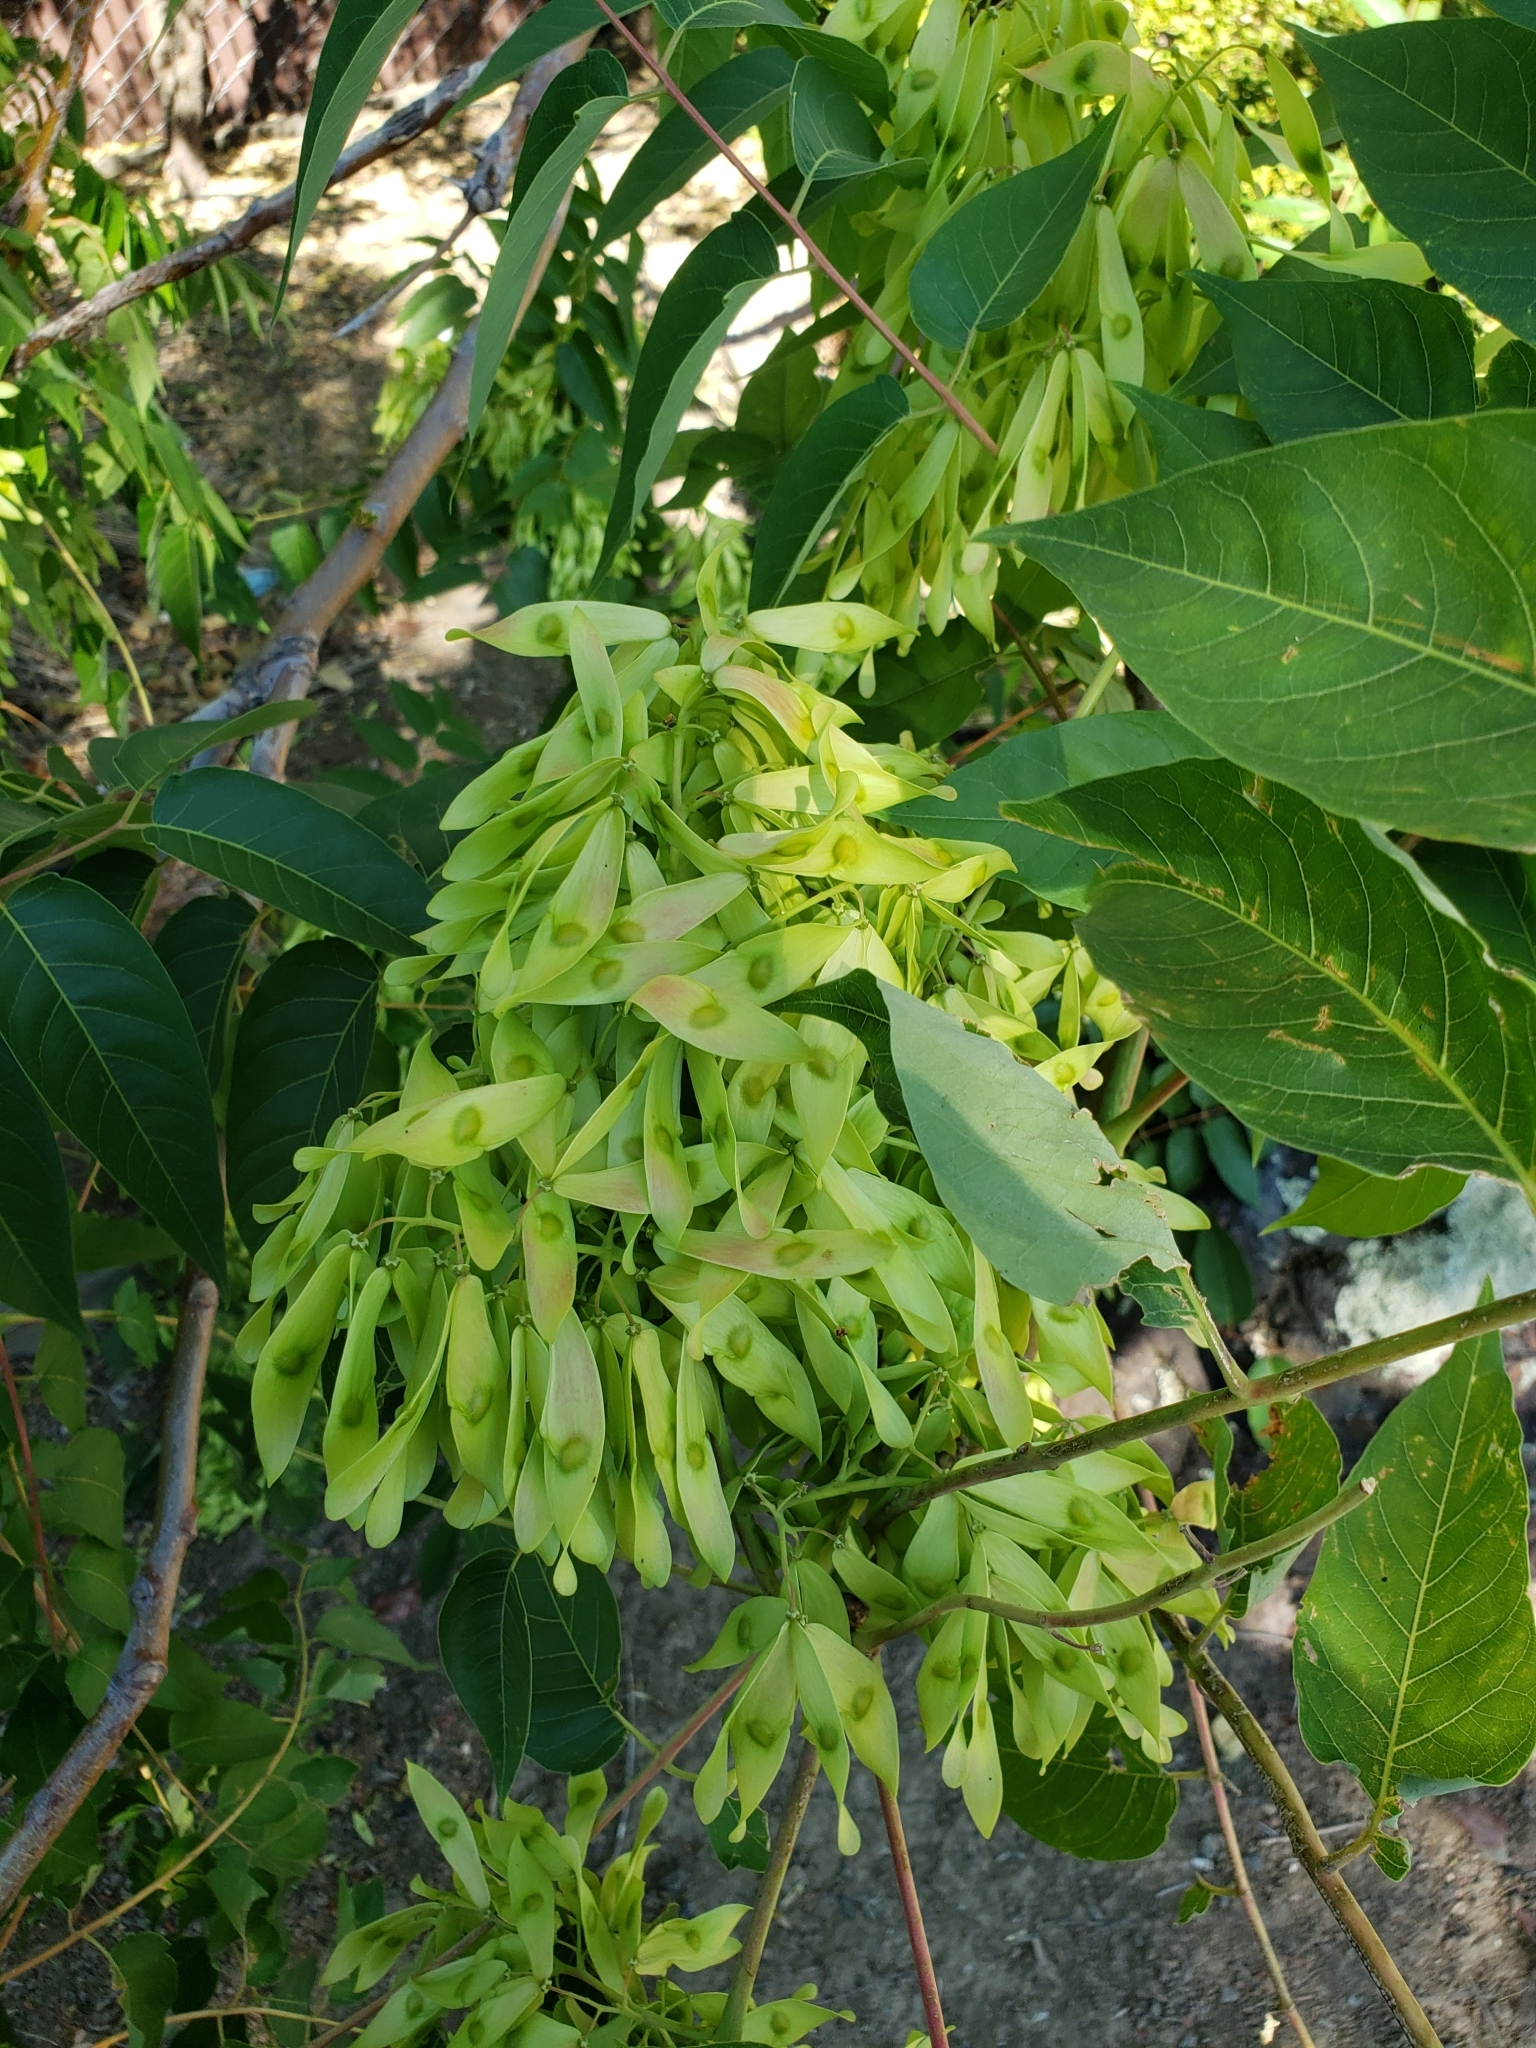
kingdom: Plantae
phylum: Tracheophyta
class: Magnoliopsida
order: Sapindales
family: Simaroubaceae
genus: Ailanthus
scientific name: Ailanthus altissima
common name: Tree-of-heaven
